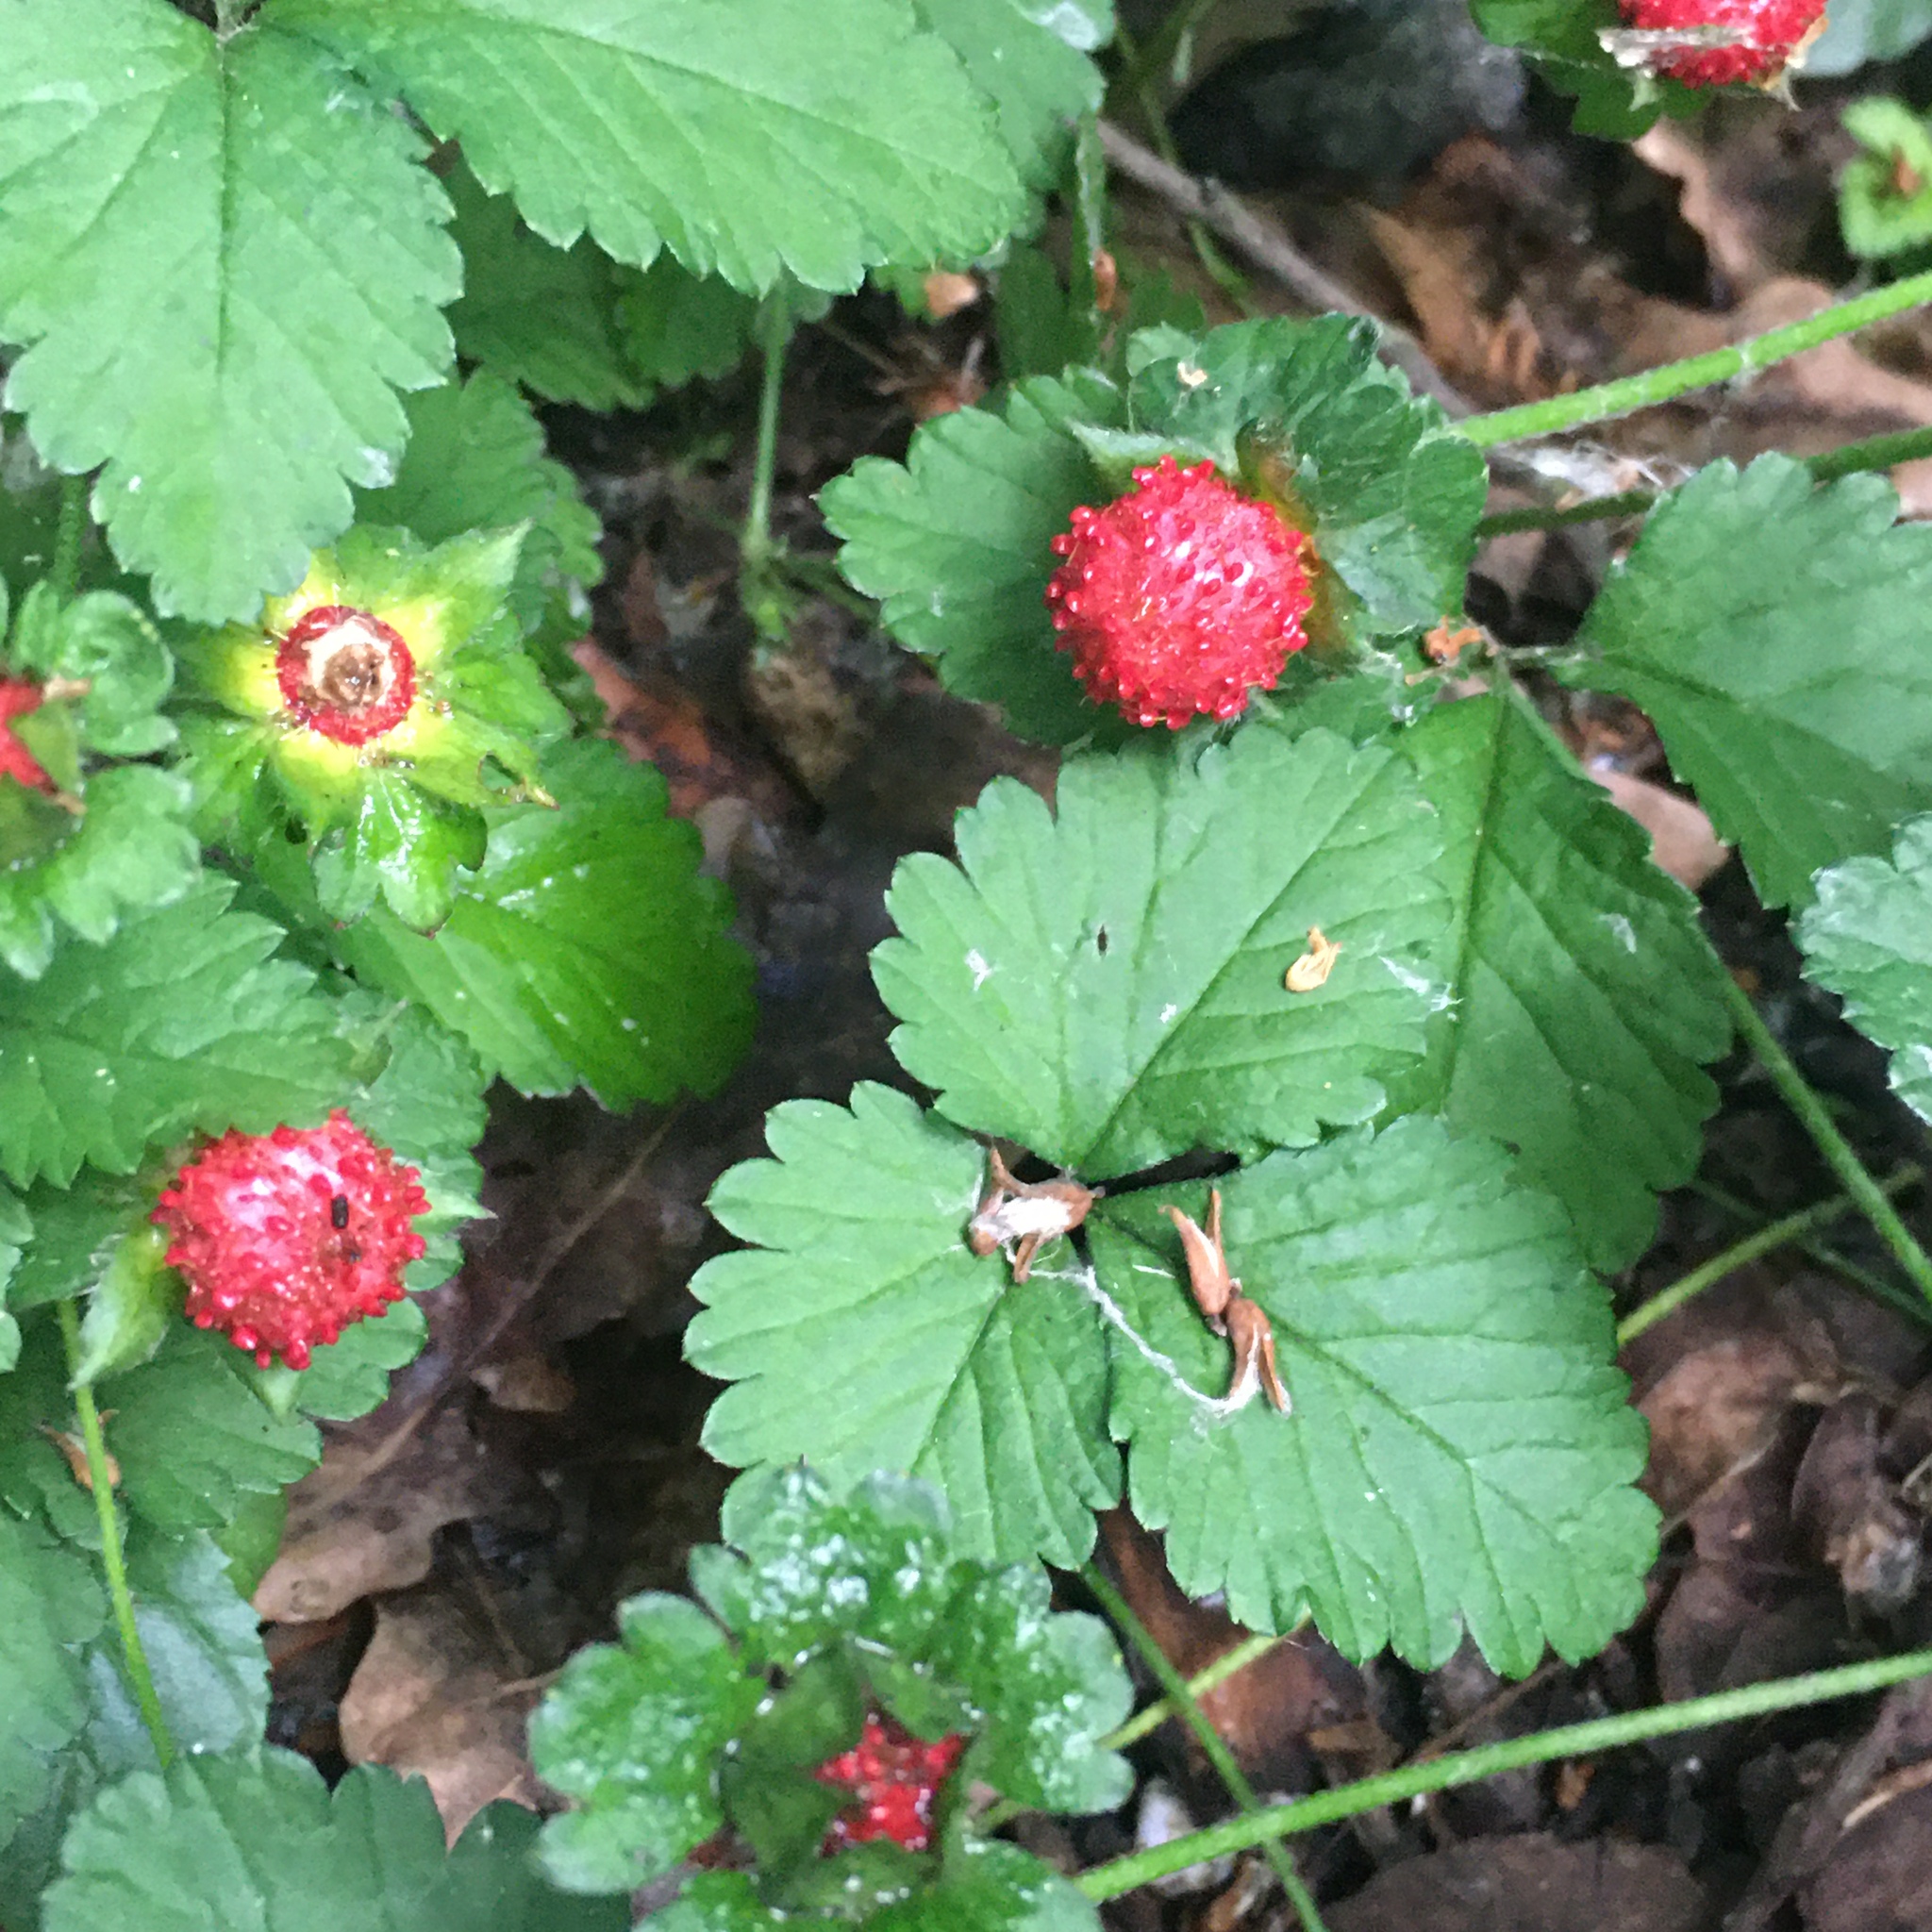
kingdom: Plantae
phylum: Tracheophyta
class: Magnoliopsida
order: Rosales
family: Rosaceae
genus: Potentilla
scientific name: Potentilla indica
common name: Yellow-flowered strawberry
